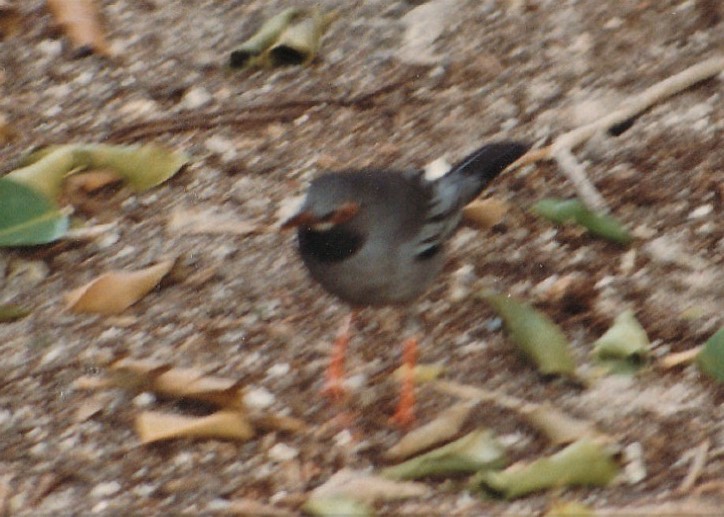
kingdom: Animalia
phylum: Chordata
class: Aves
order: Passeriformes
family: Turdidae
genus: Turdus
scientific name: Turdus plumbeus
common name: Red-legged thrush
